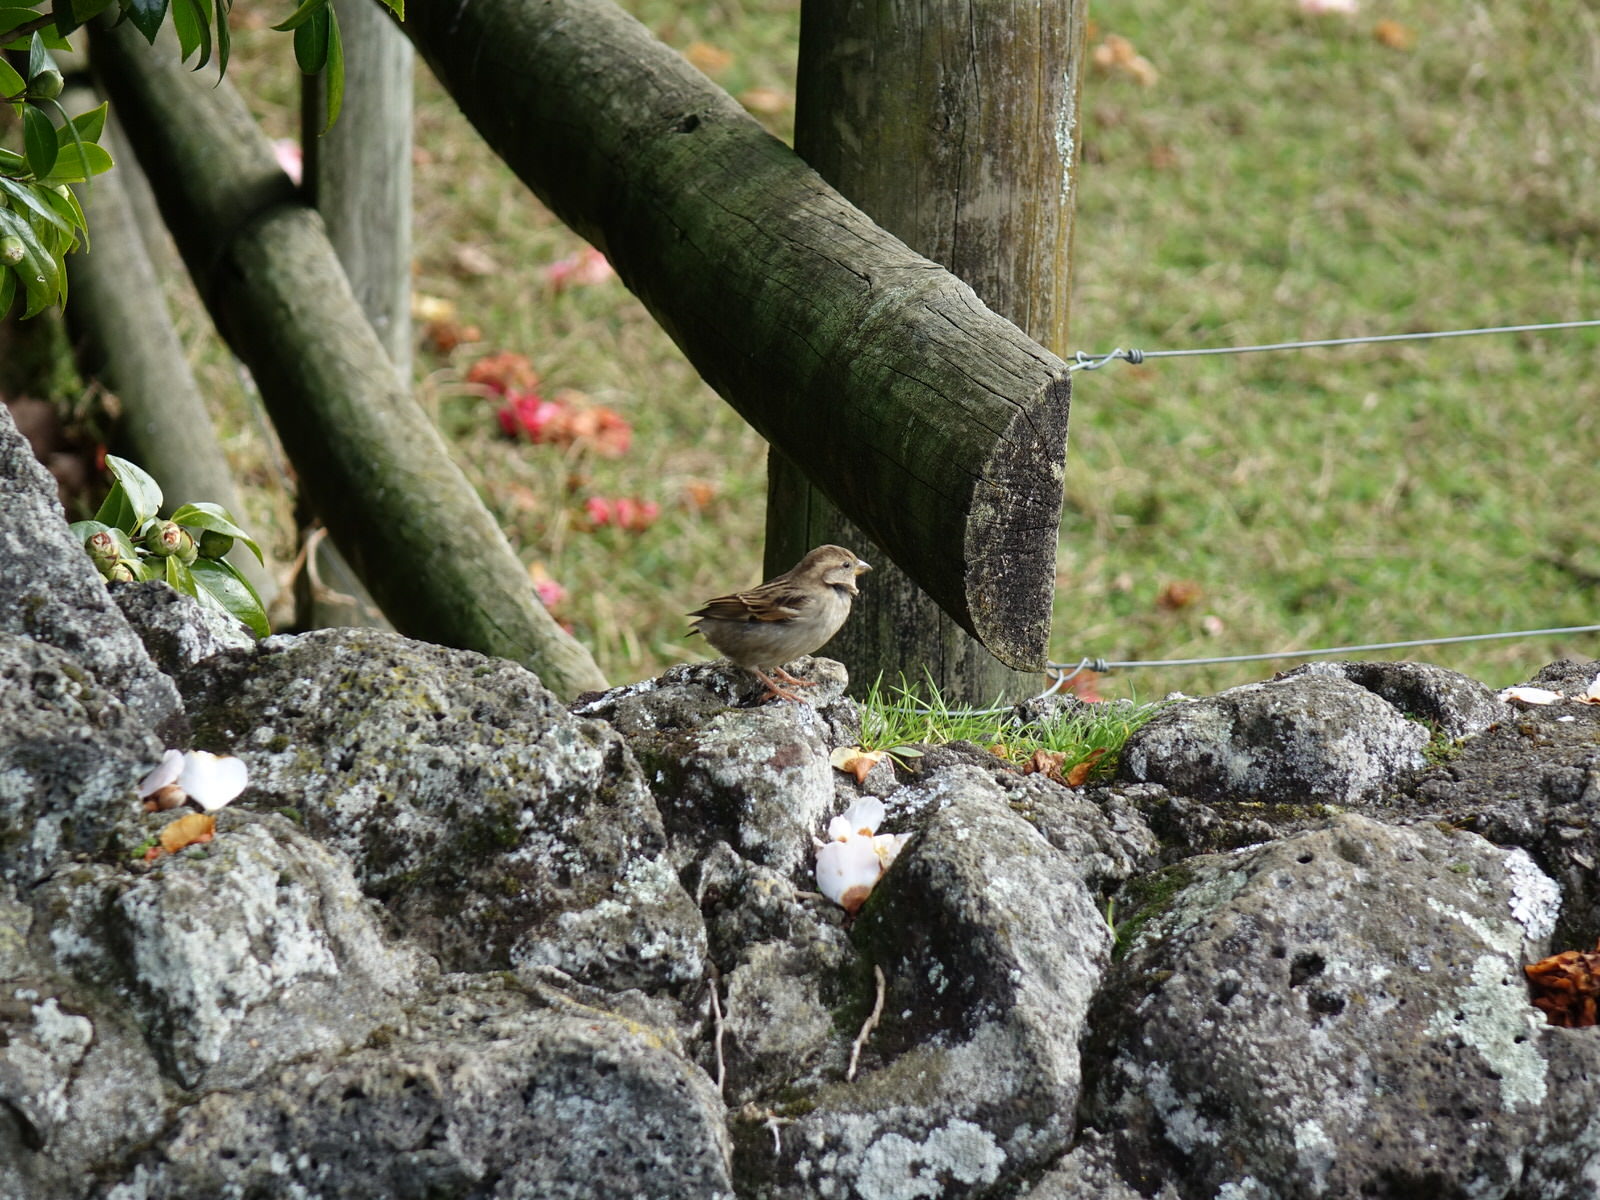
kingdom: Animalia
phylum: Chordata
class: Aves
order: Passeriformes
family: Passeridae
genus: Passer
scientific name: Passer domesticus
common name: House sparrow
